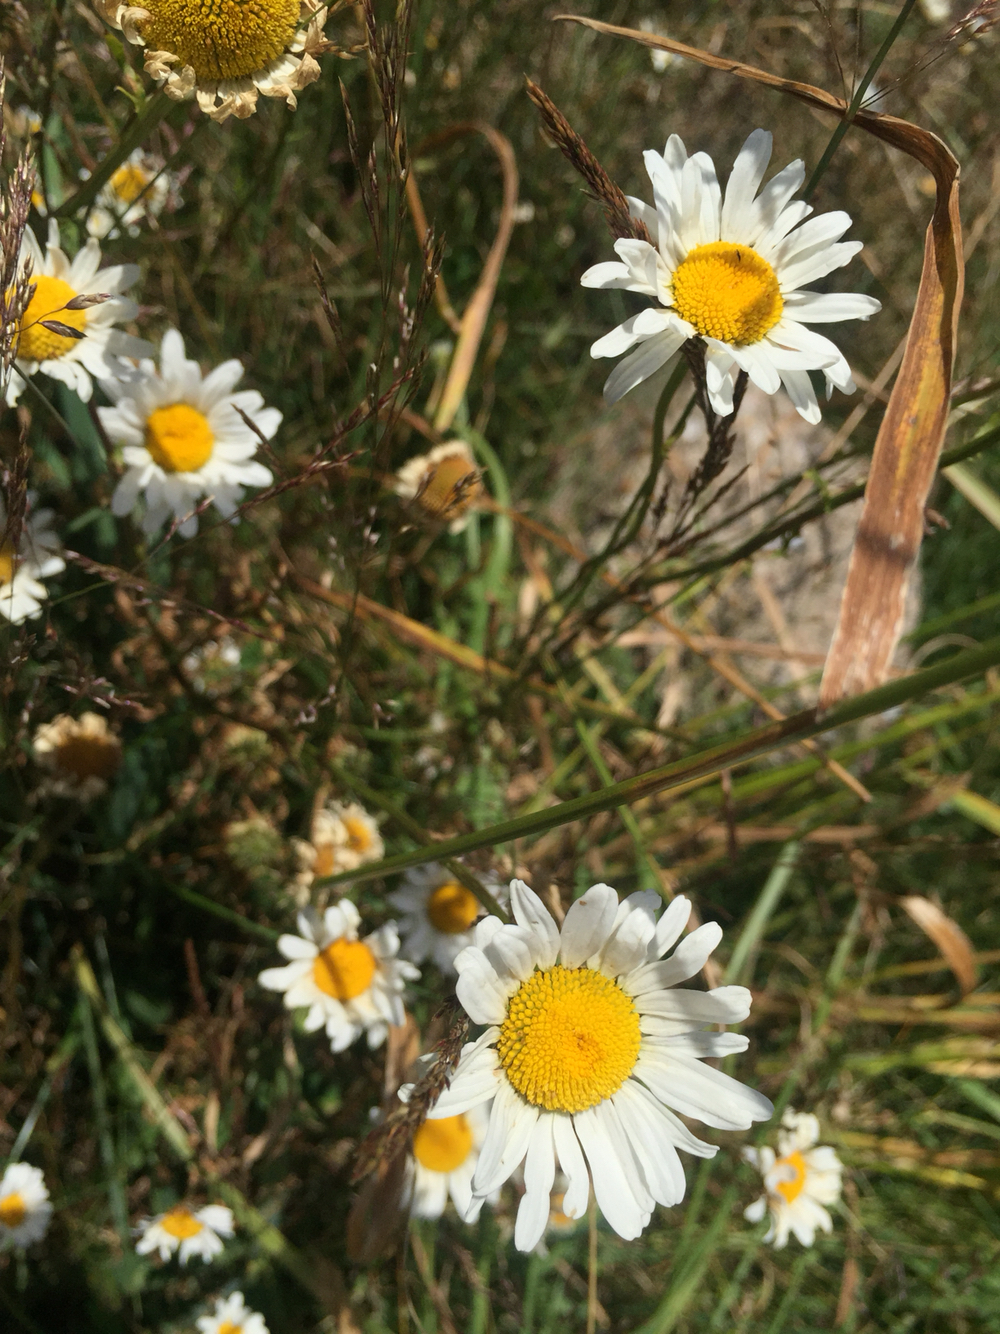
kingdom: Plantae
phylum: Tracheophyta
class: Magnoliopsida
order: Asterales
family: Asteraceae
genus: Leucanthemum
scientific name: Leucanthemum vulgare
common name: Oxeye daisy
